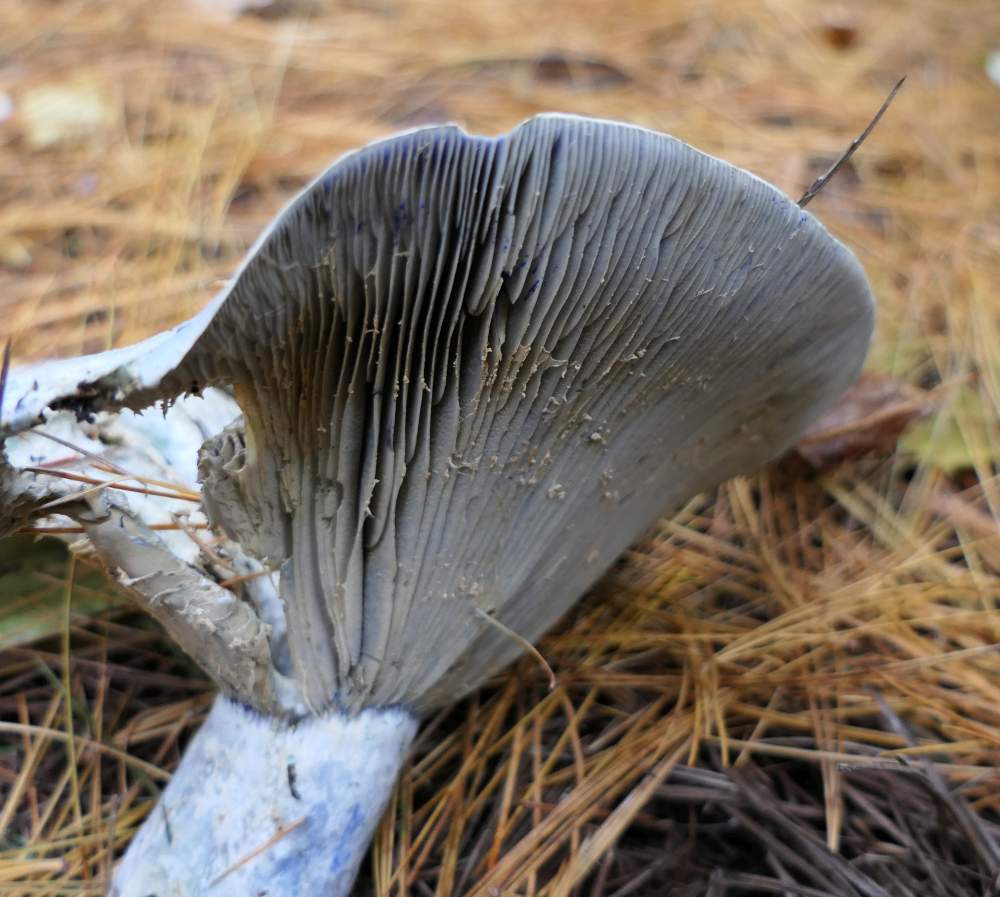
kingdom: Fungi
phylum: Basidiomycota
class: Agaricomycetes
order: Russulales
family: Russulaceae
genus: Lactarius
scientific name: Lactarius indigo
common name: Indigo milk cap
